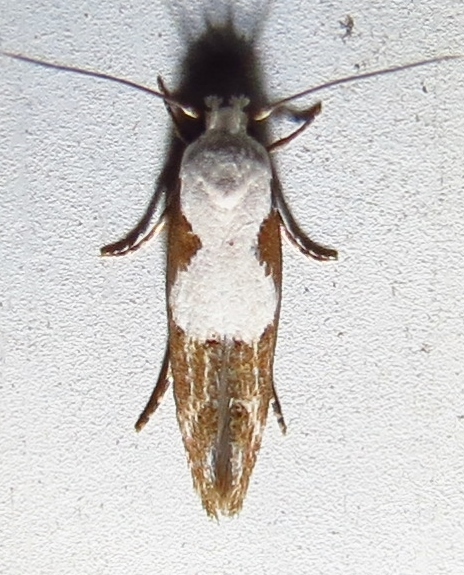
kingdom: Animalia
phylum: Arthropoda
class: Insecta
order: Lepidoptera
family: Momphidae
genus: Mompha
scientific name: Mompha circumscriptella
